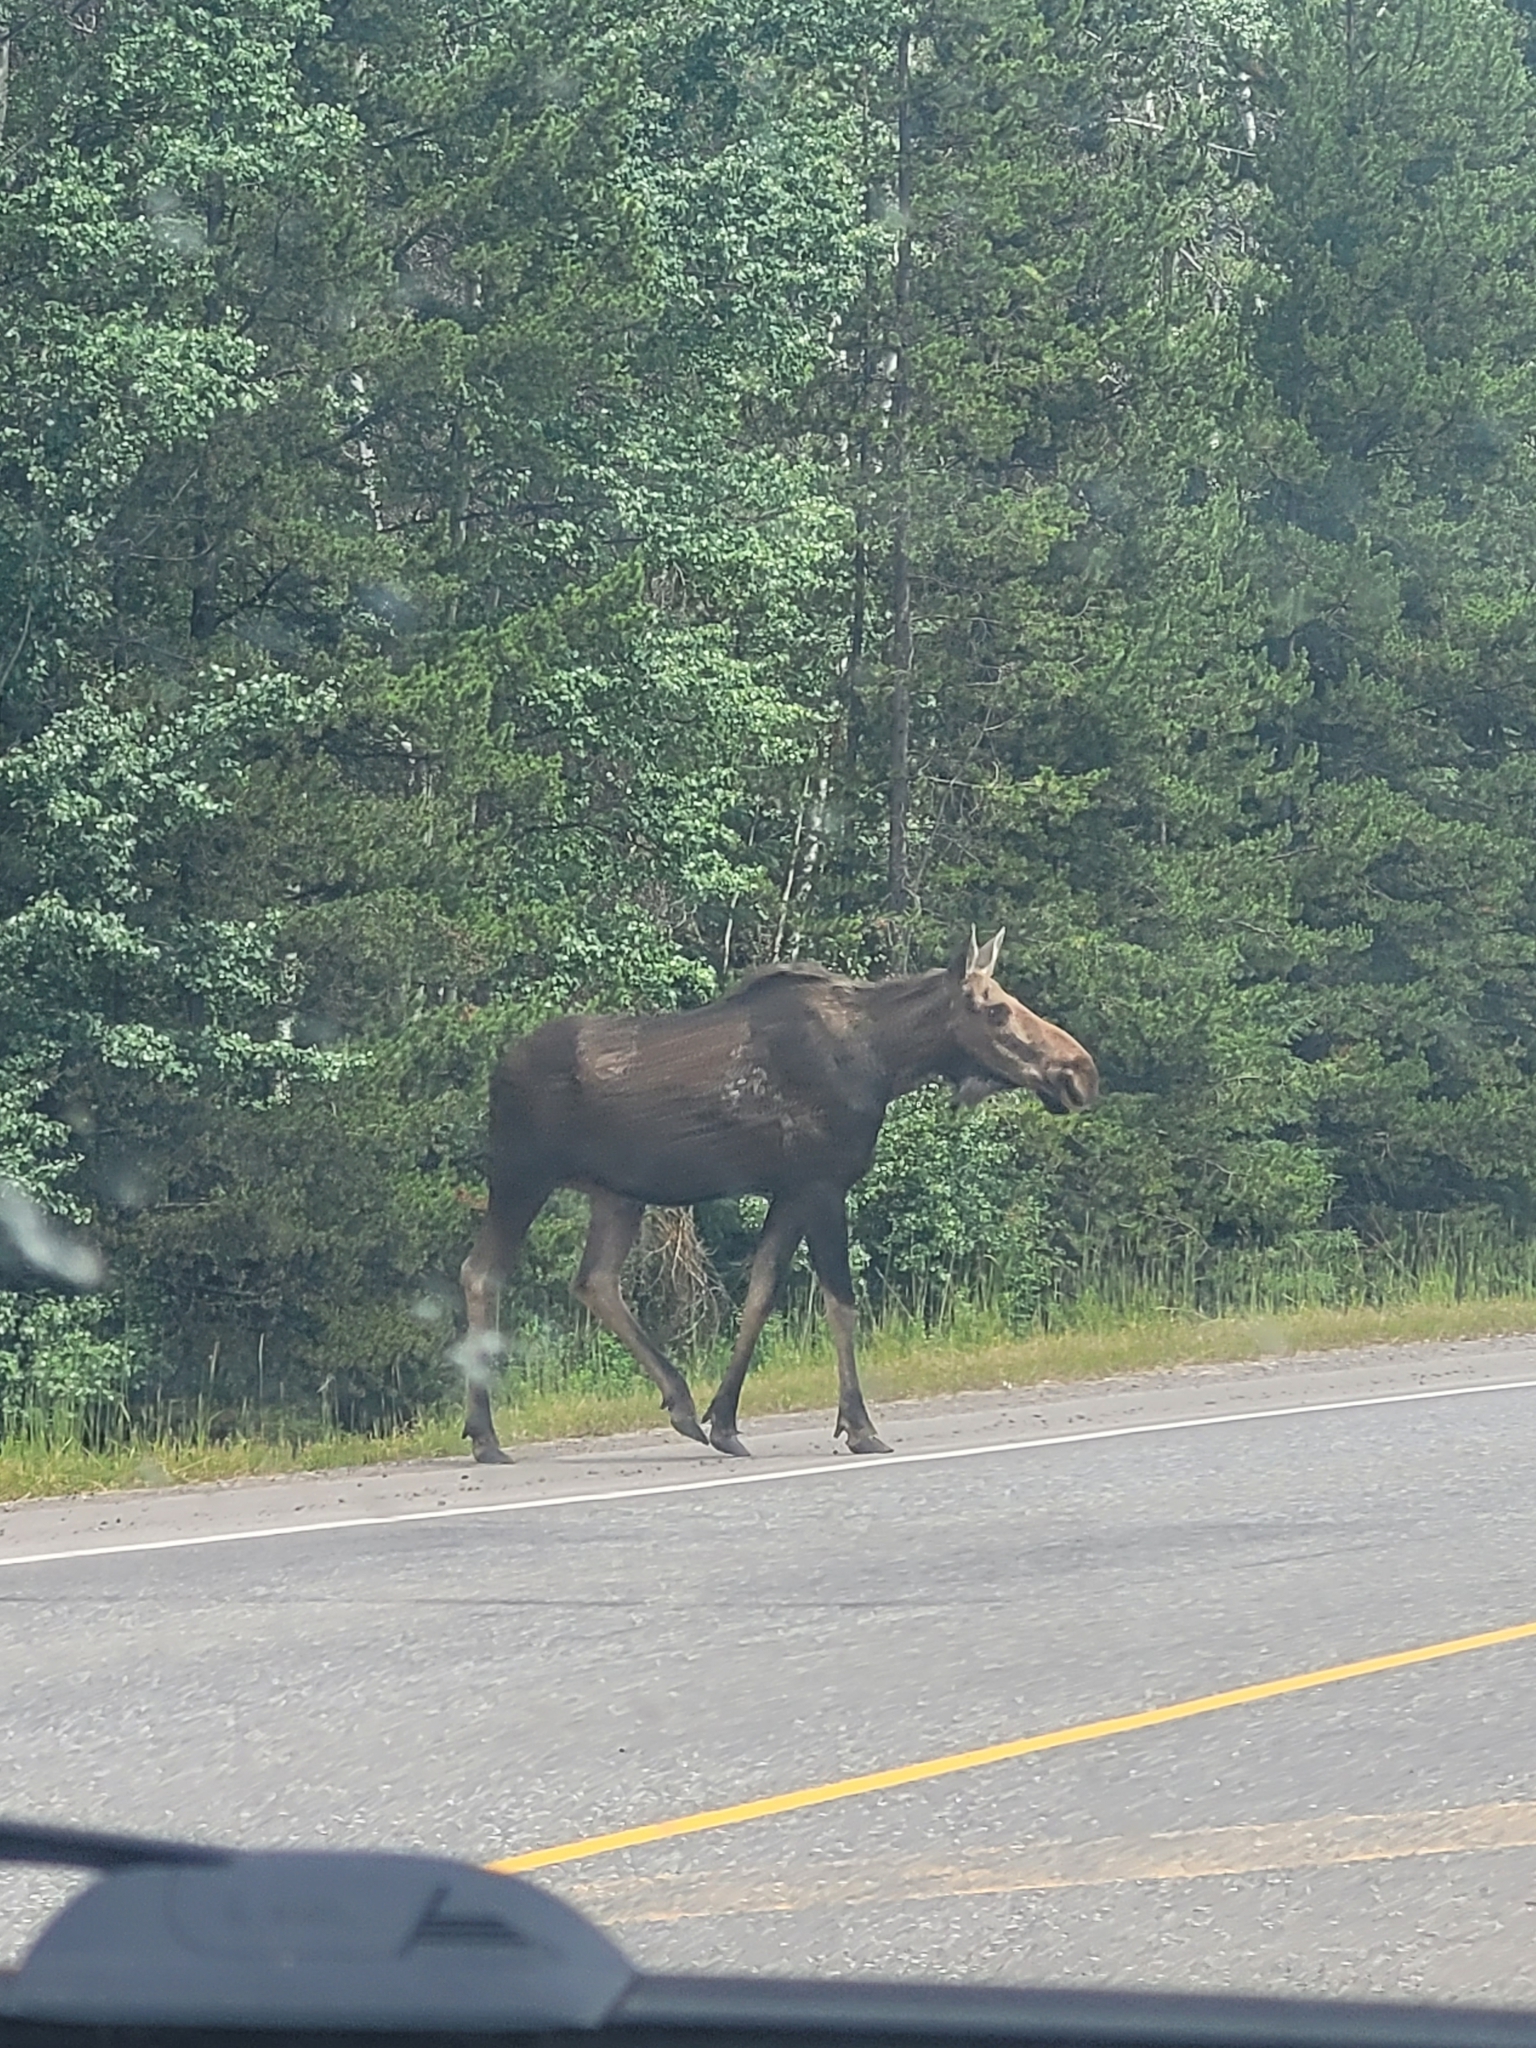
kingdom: Animalia
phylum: Chordata
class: Mammalia
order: Artiodactyla
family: Cervidae
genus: Alces
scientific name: Alces americanus
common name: Moose
